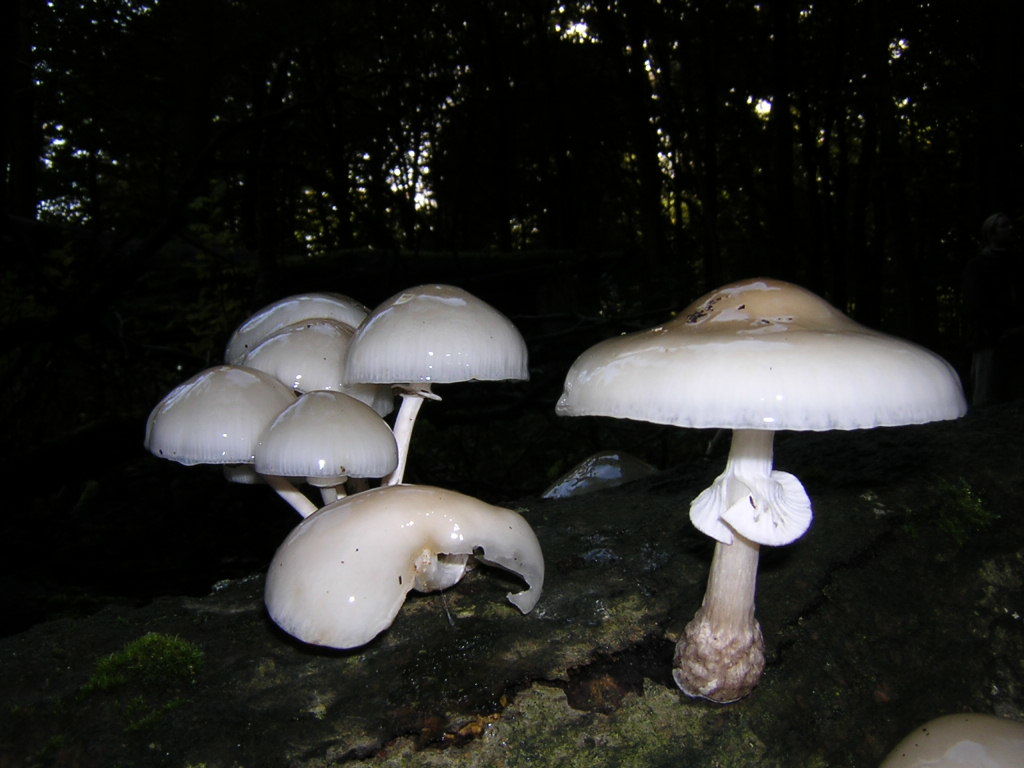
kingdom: Fungi
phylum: Basidiomycota
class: Agaricomycetes
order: Agaricales
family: Physalacriaceae
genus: Mucidula
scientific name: Mucidula mucida
